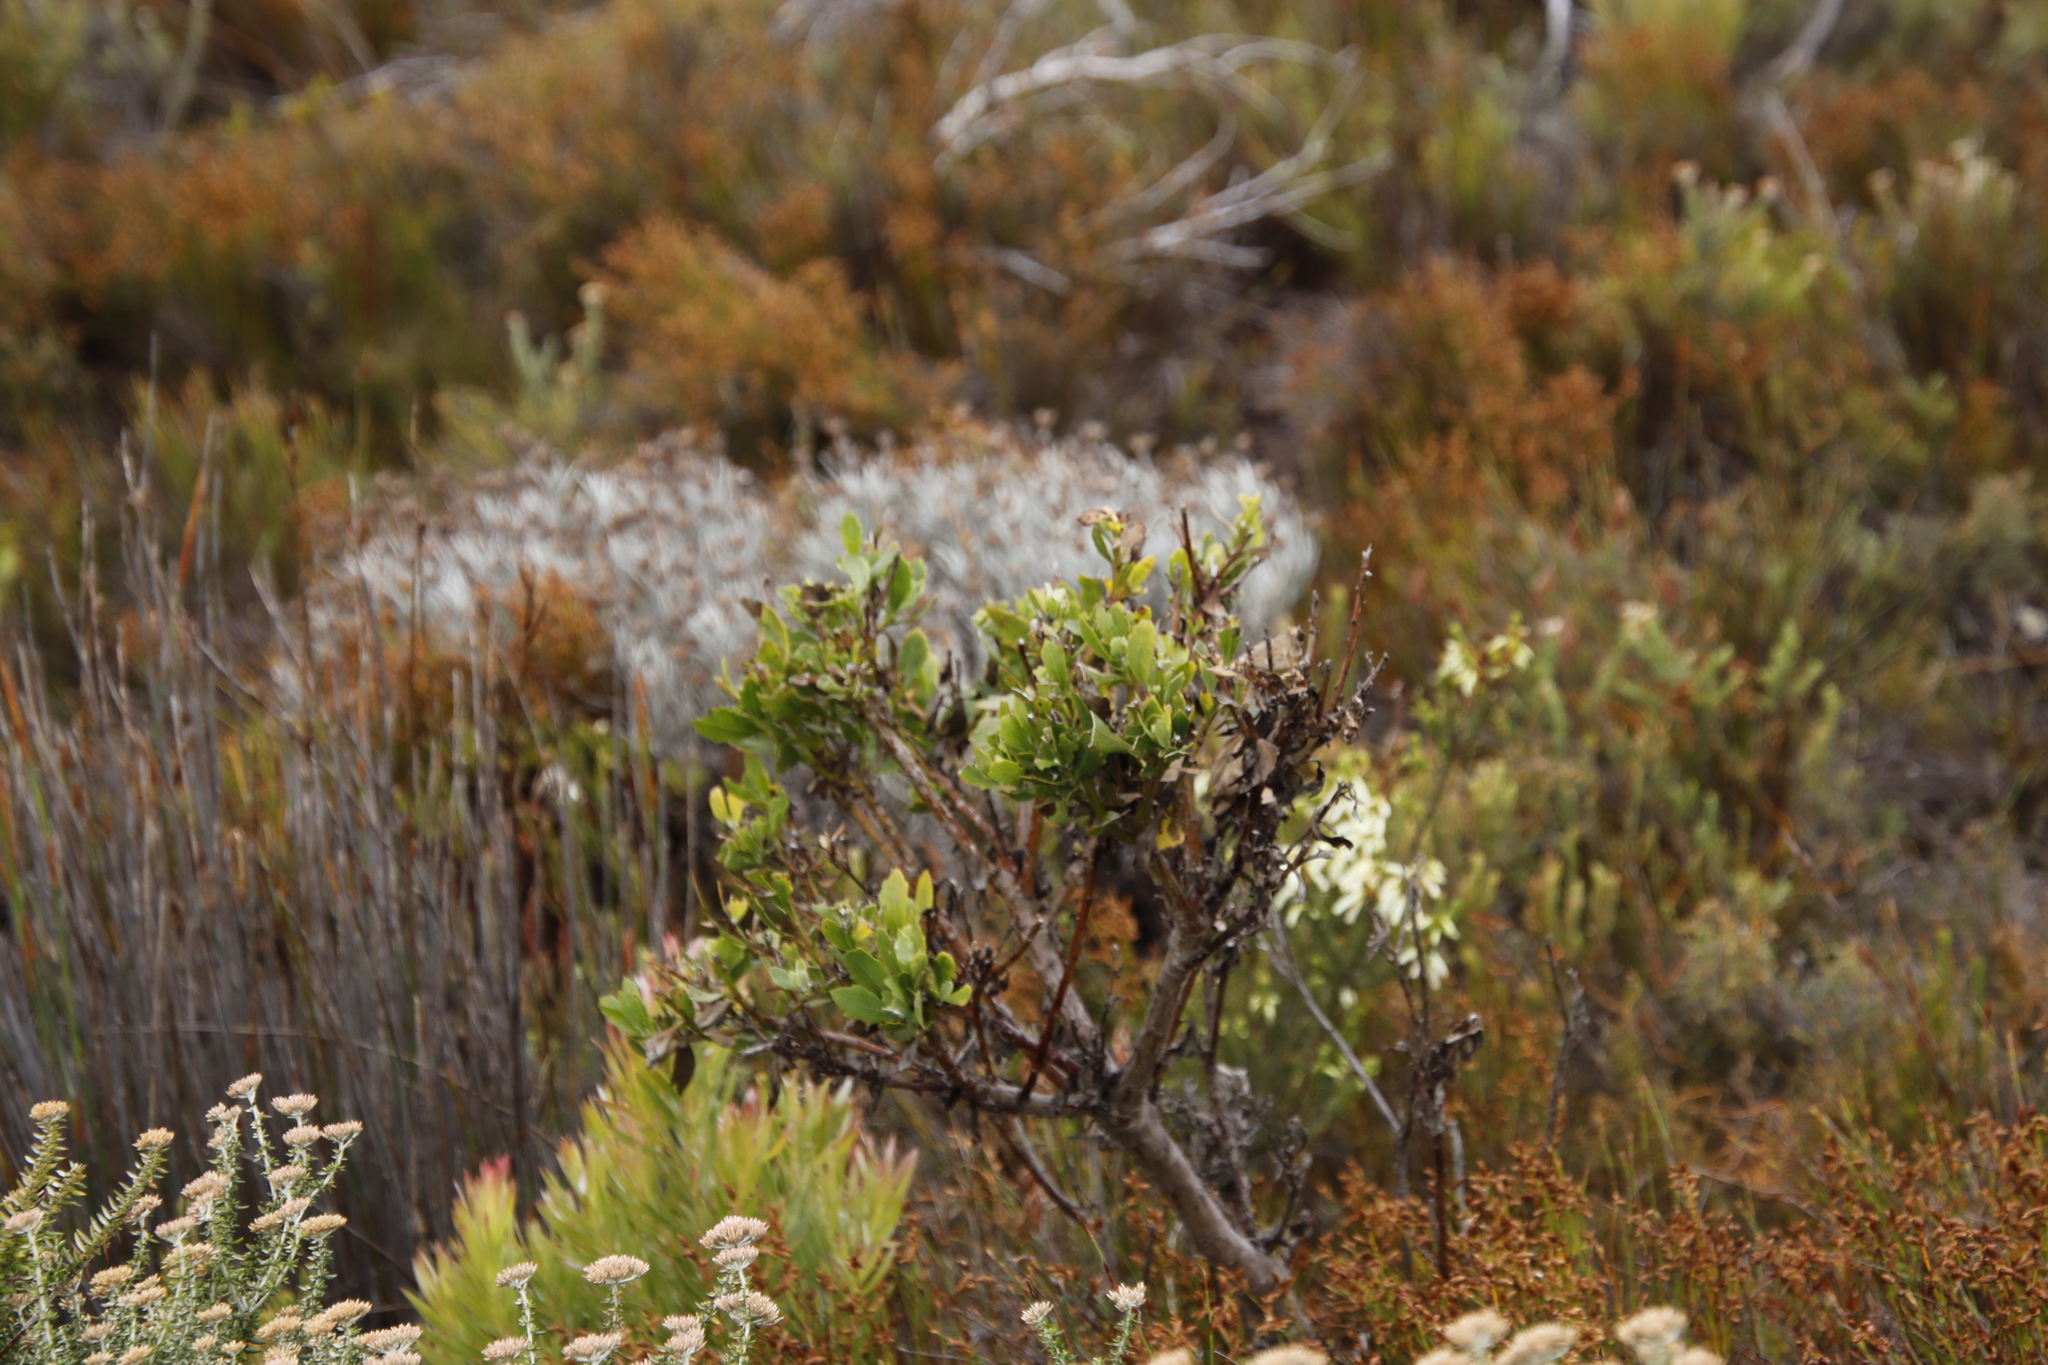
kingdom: Plantae
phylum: Tracheophyta
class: Magnoliopsida
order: Asterales
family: Asteraceae
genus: Osteospermum
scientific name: Osteospermum moniliferum
